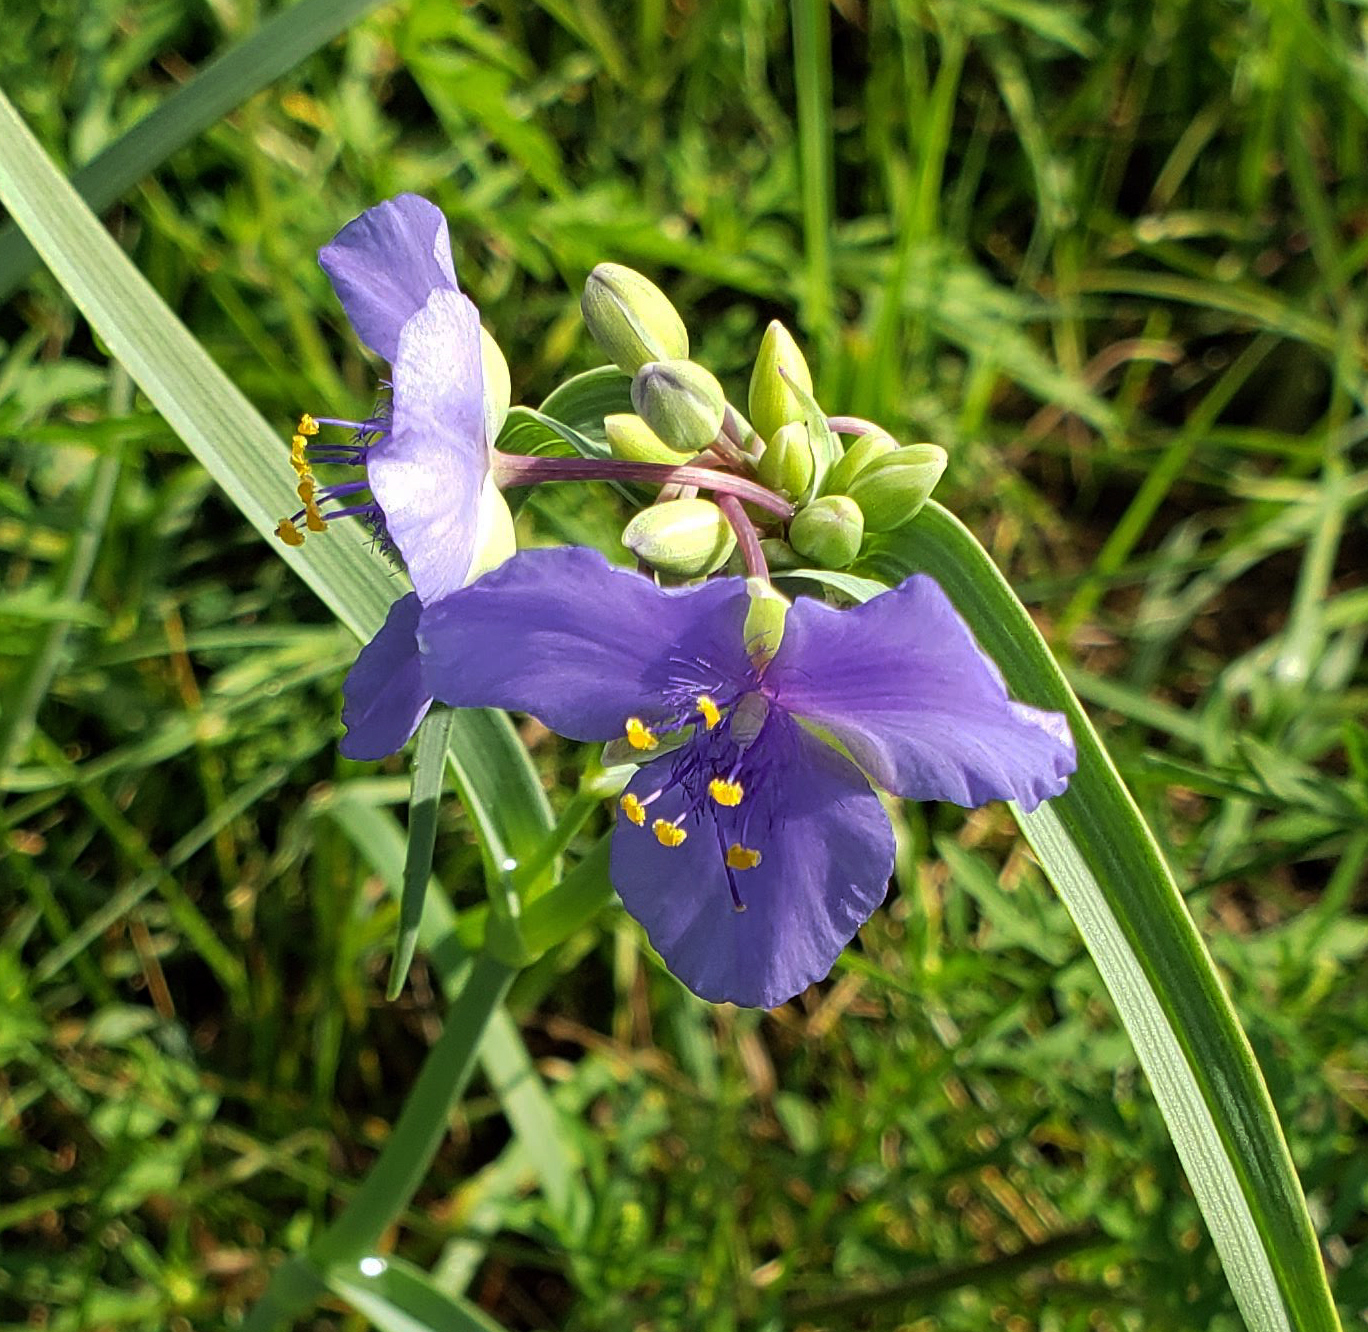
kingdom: Plantae
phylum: Tracheophyta
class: Liliopsida
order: Commelinales
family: Commelinaceae
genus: Tradescantia
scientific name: Tradescantia ohiensis
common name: Ohio spiderwort
